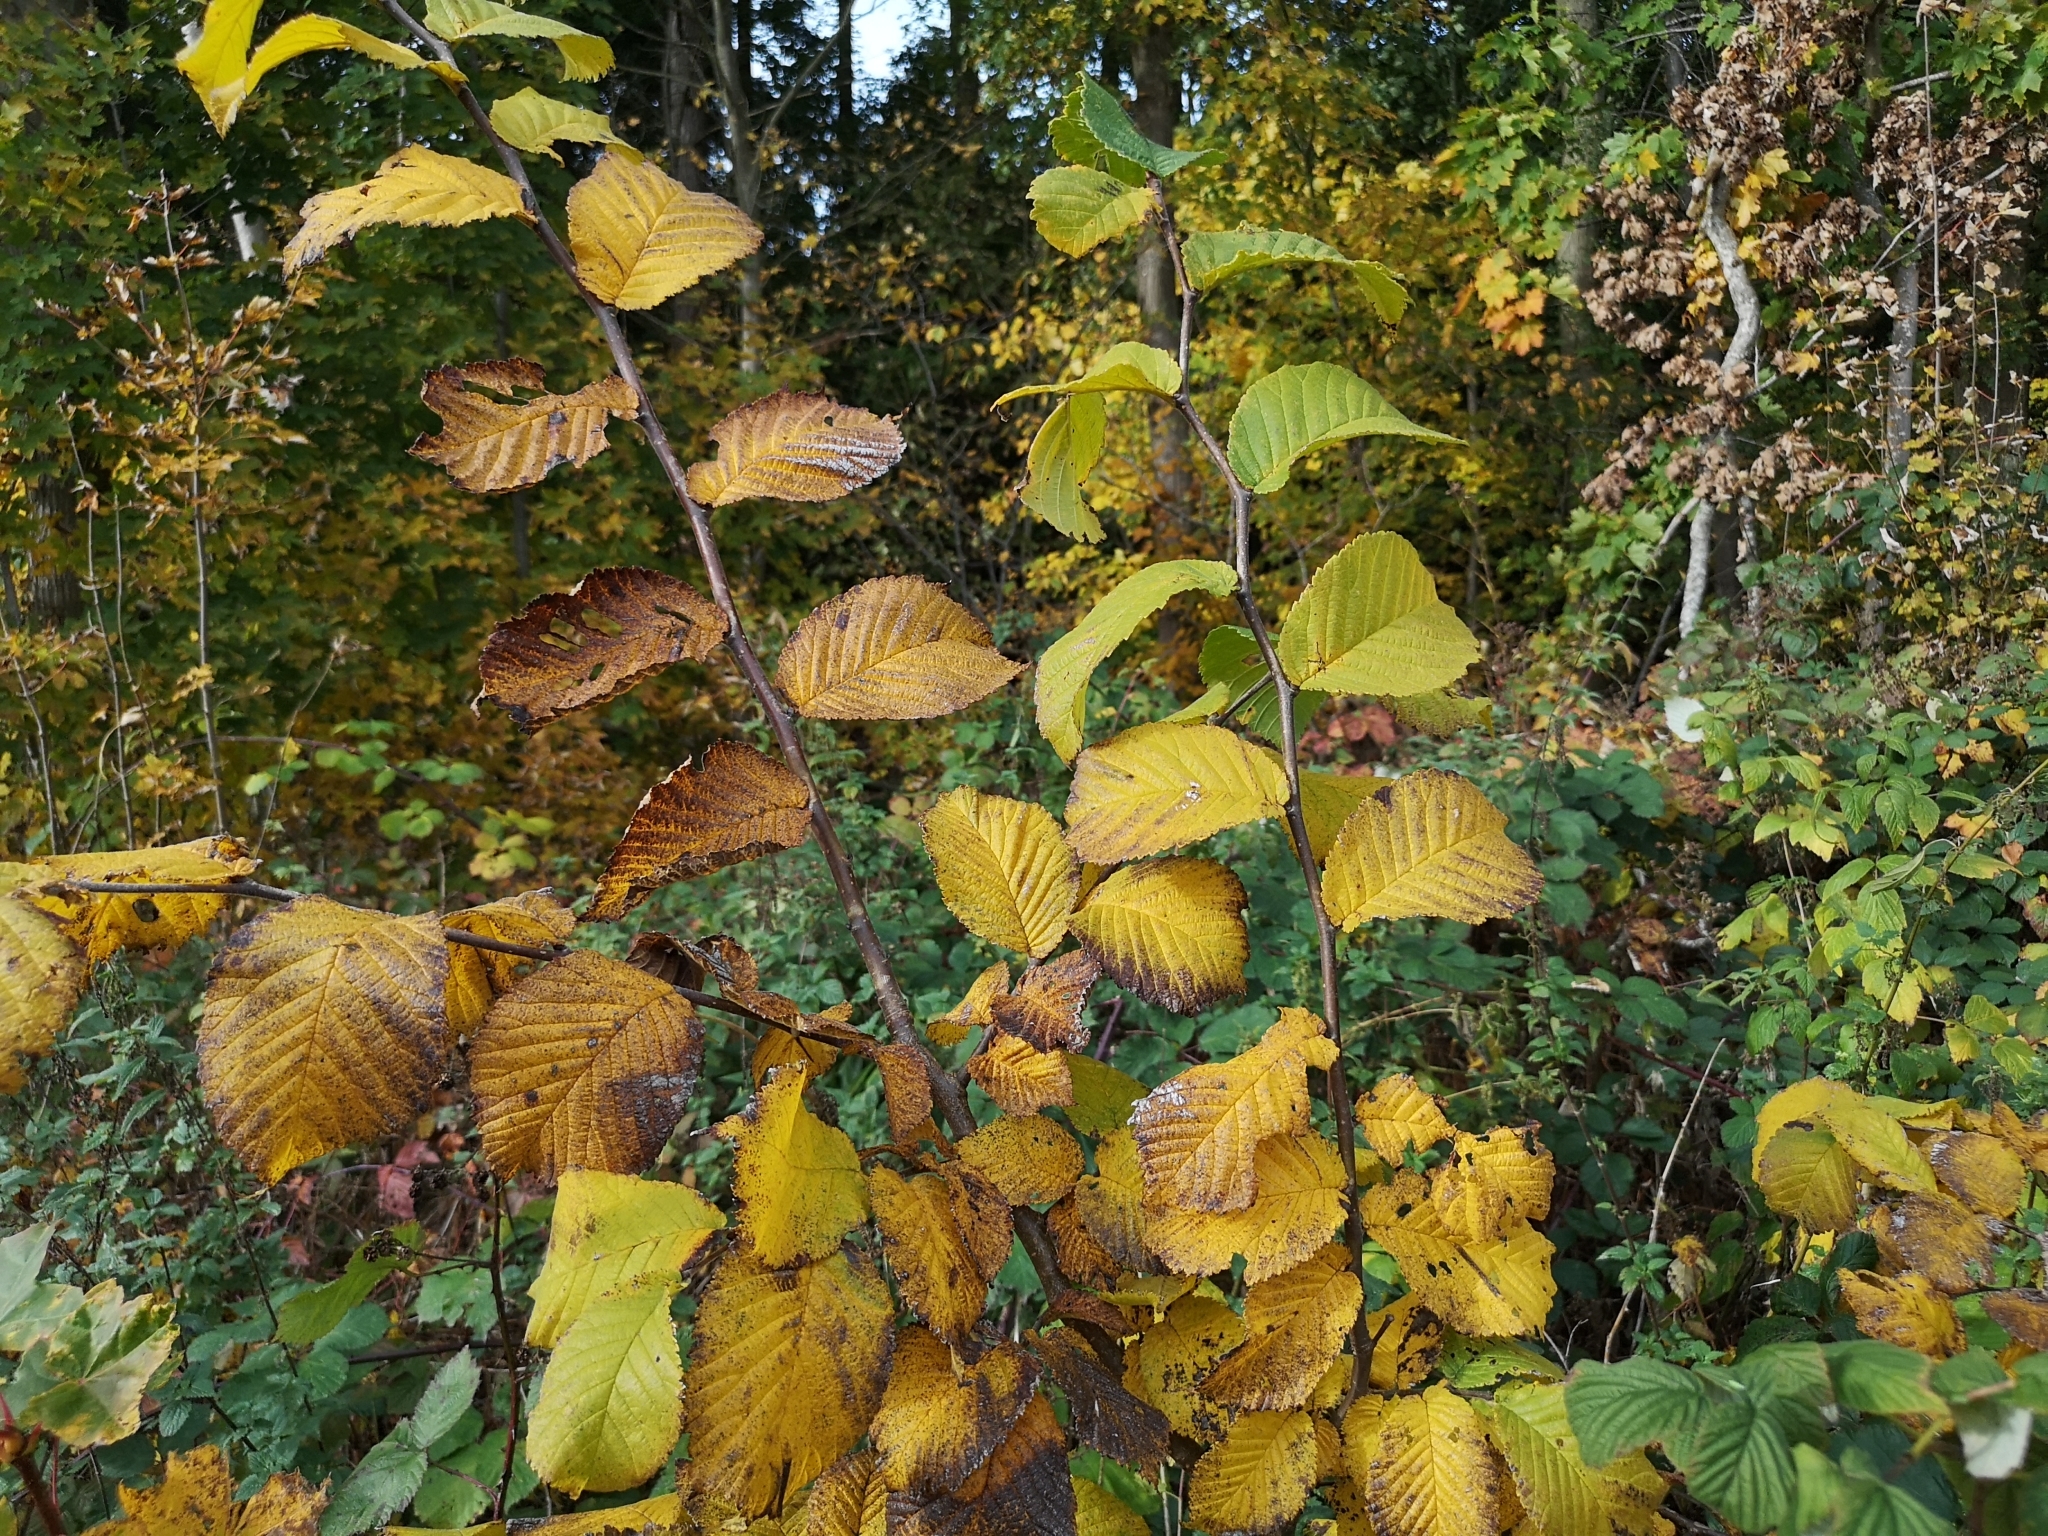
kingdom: Plantae
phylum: Tracheophyta
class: Magnoliopsida
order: Rosales
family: Ulmaceae
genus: Ulmus
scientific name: Ulmus glabra
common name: Wych elm
